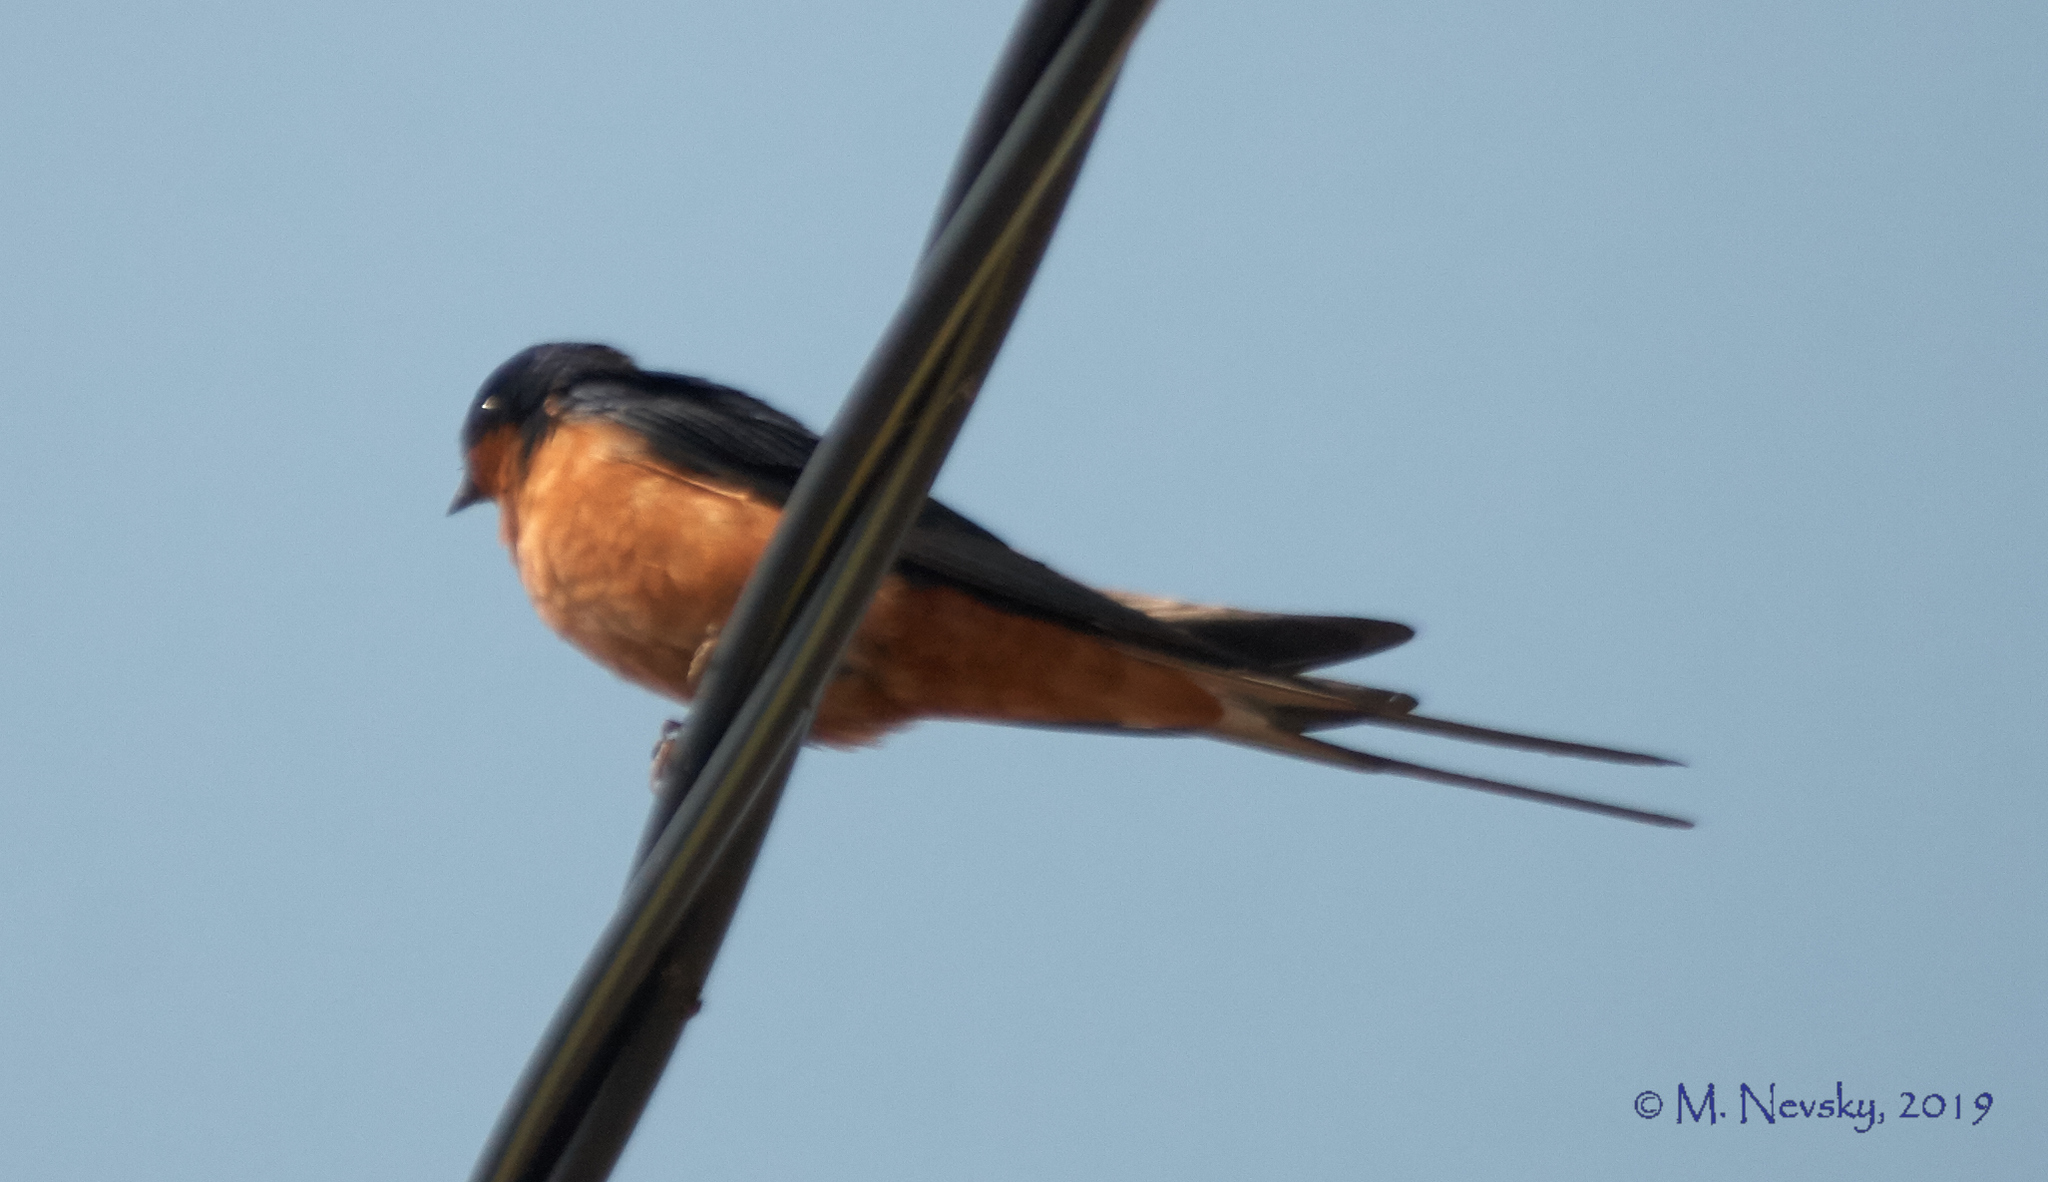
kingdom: Animalia
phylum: Chordata
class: Aves
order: Passeriformes
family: Hirundinidae
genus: Hirundo
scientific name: Hirundo rustica
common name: Barn swallow
